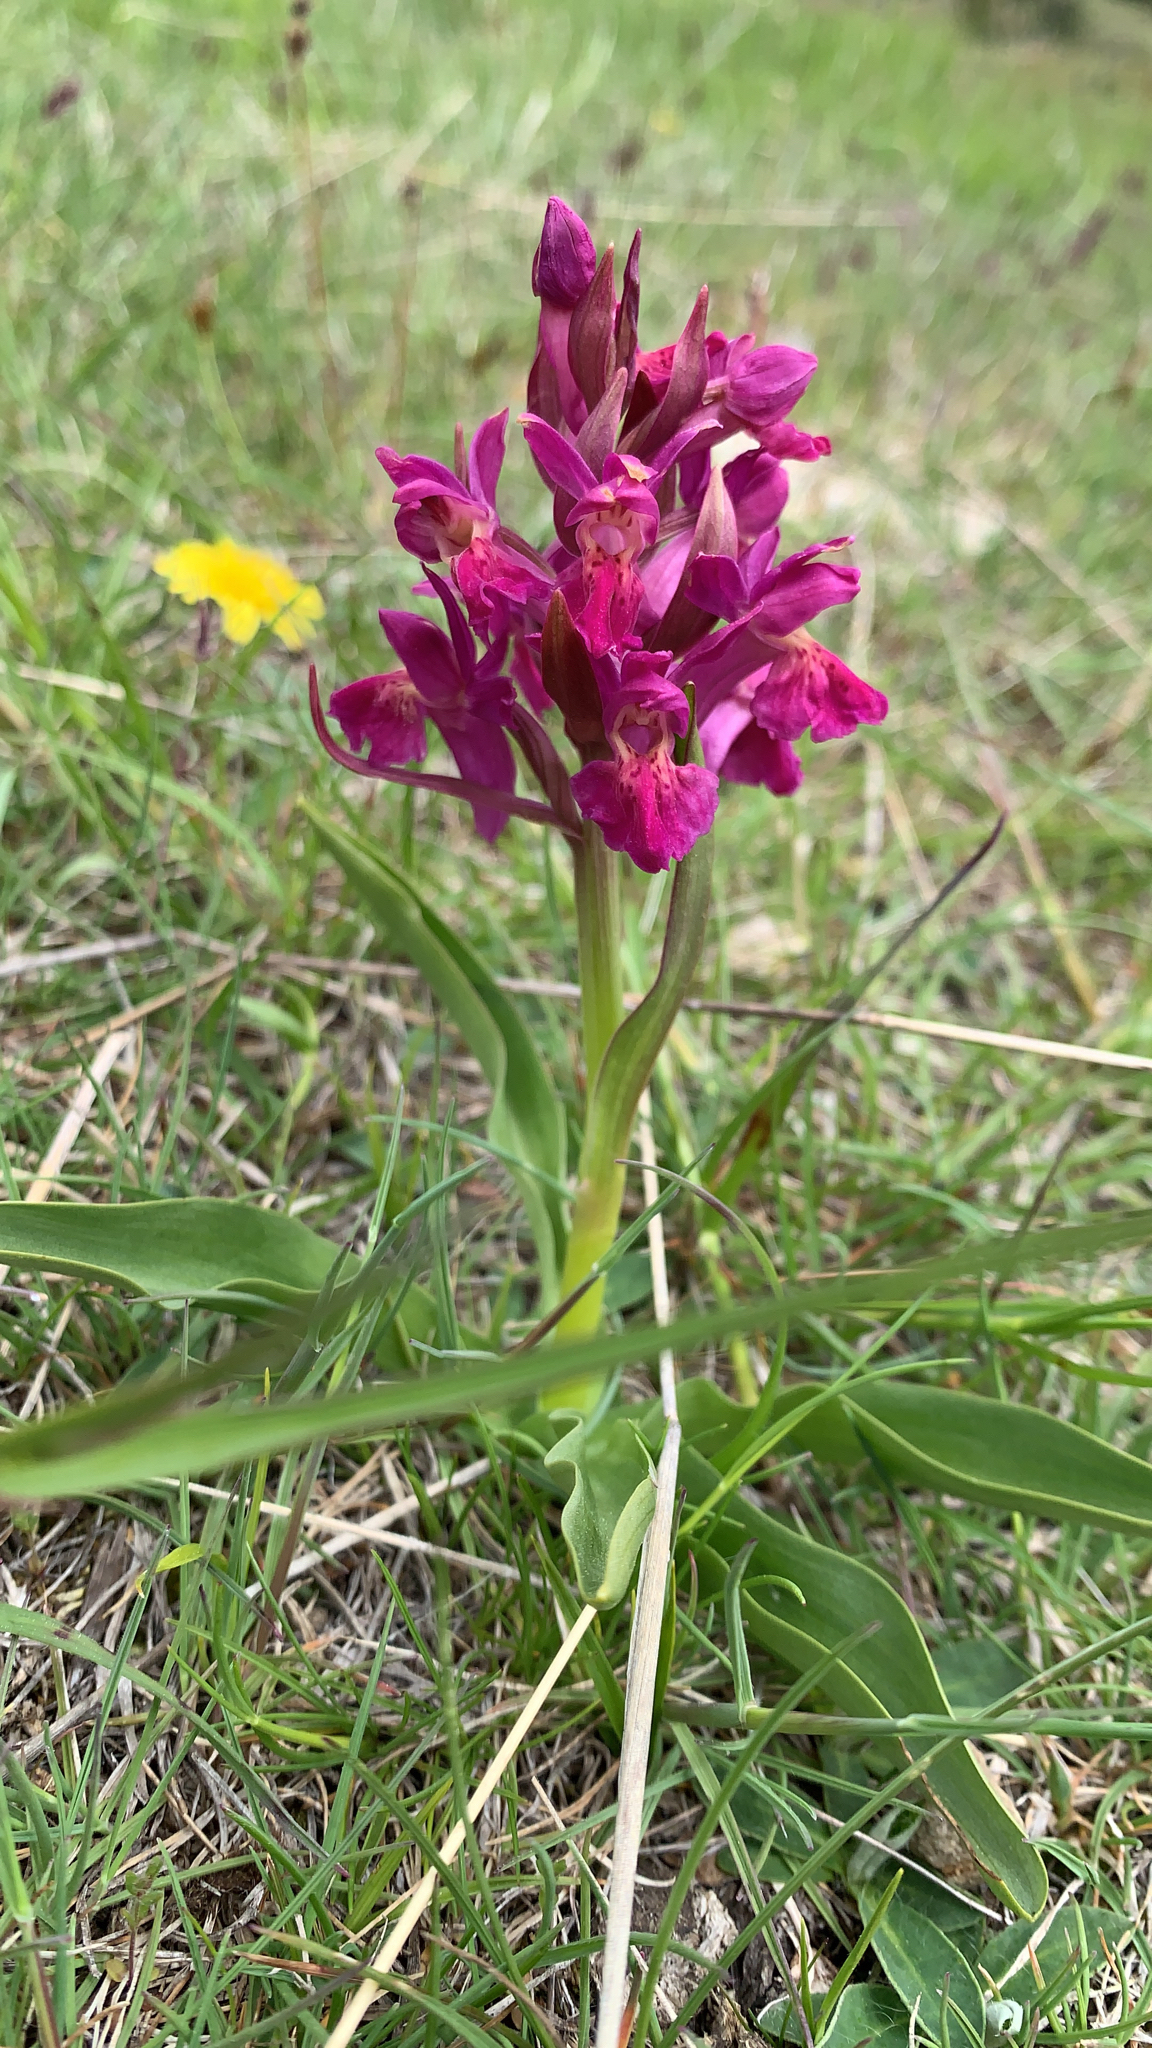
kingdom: Plantae
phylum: Tracheophyta
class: Liliopsida
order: Asparagales
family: Orchidaceae
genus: Dactylorhiza
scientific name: Dactylorhiza sambucina
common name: Elder-flowered orchid
